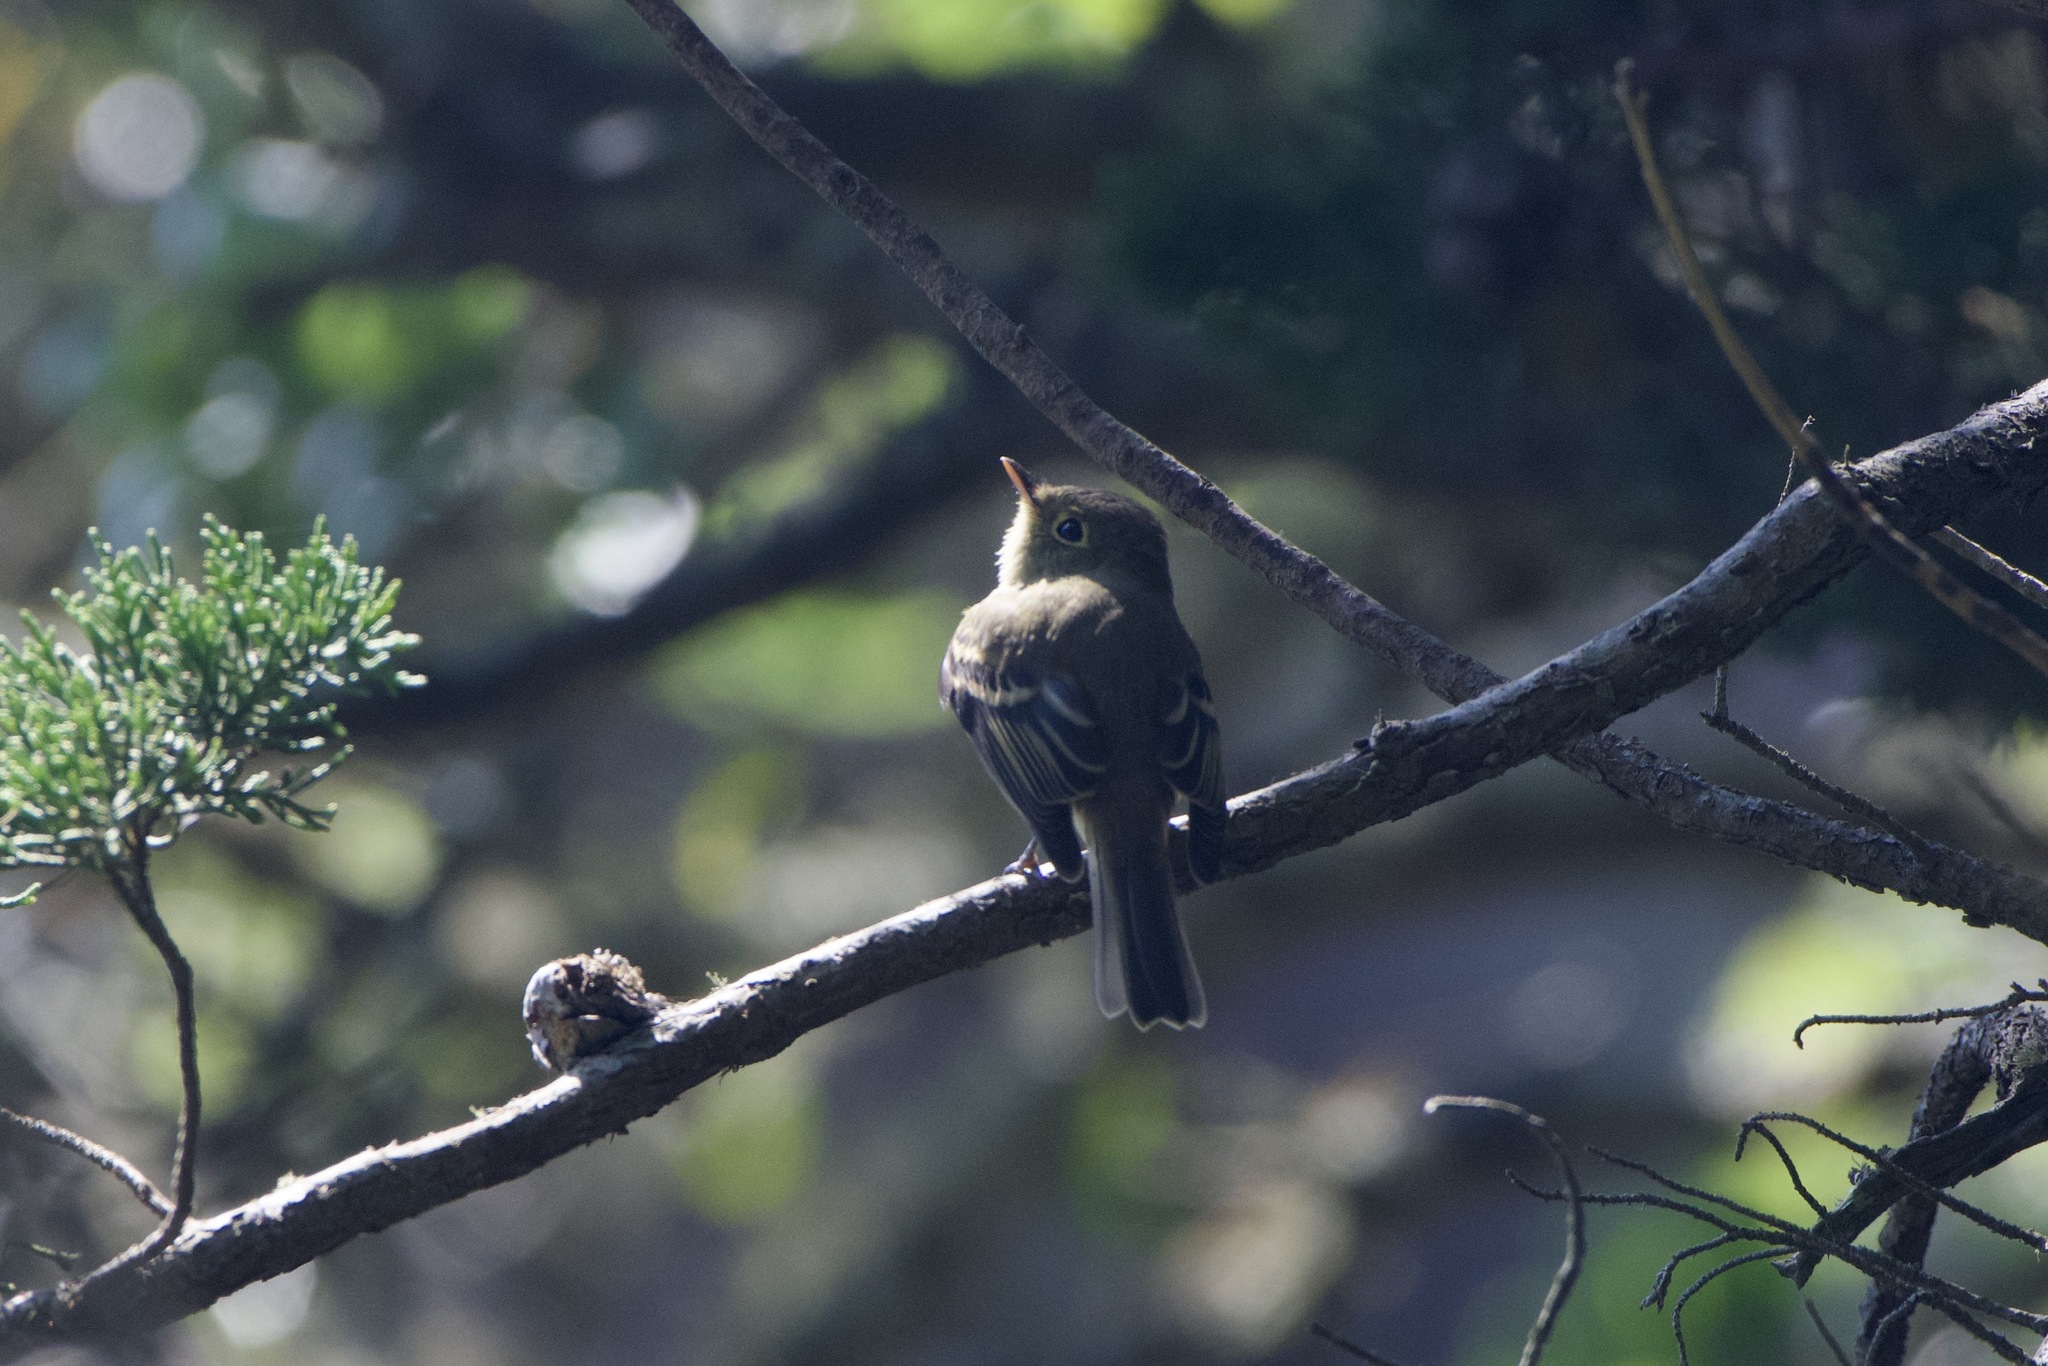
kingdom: Animalia
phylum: Chordata
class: Aves
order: Passeriformes
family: Tyrannidae
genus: Empidonax
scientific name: Empidonax difficilis
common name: Pacific-slope flycatcher
